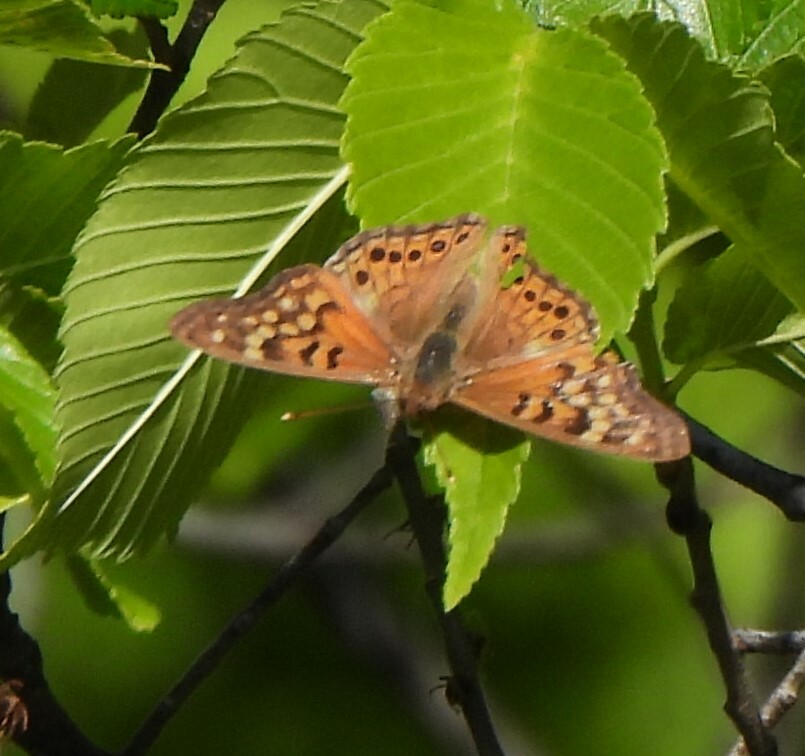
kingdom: Animalia
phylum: Arthropoda
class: Insecta
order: Lepidoptera
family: Nymphalidae
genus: Asterocampa
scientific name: Asterocampa clyton
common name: Tawny emperor
